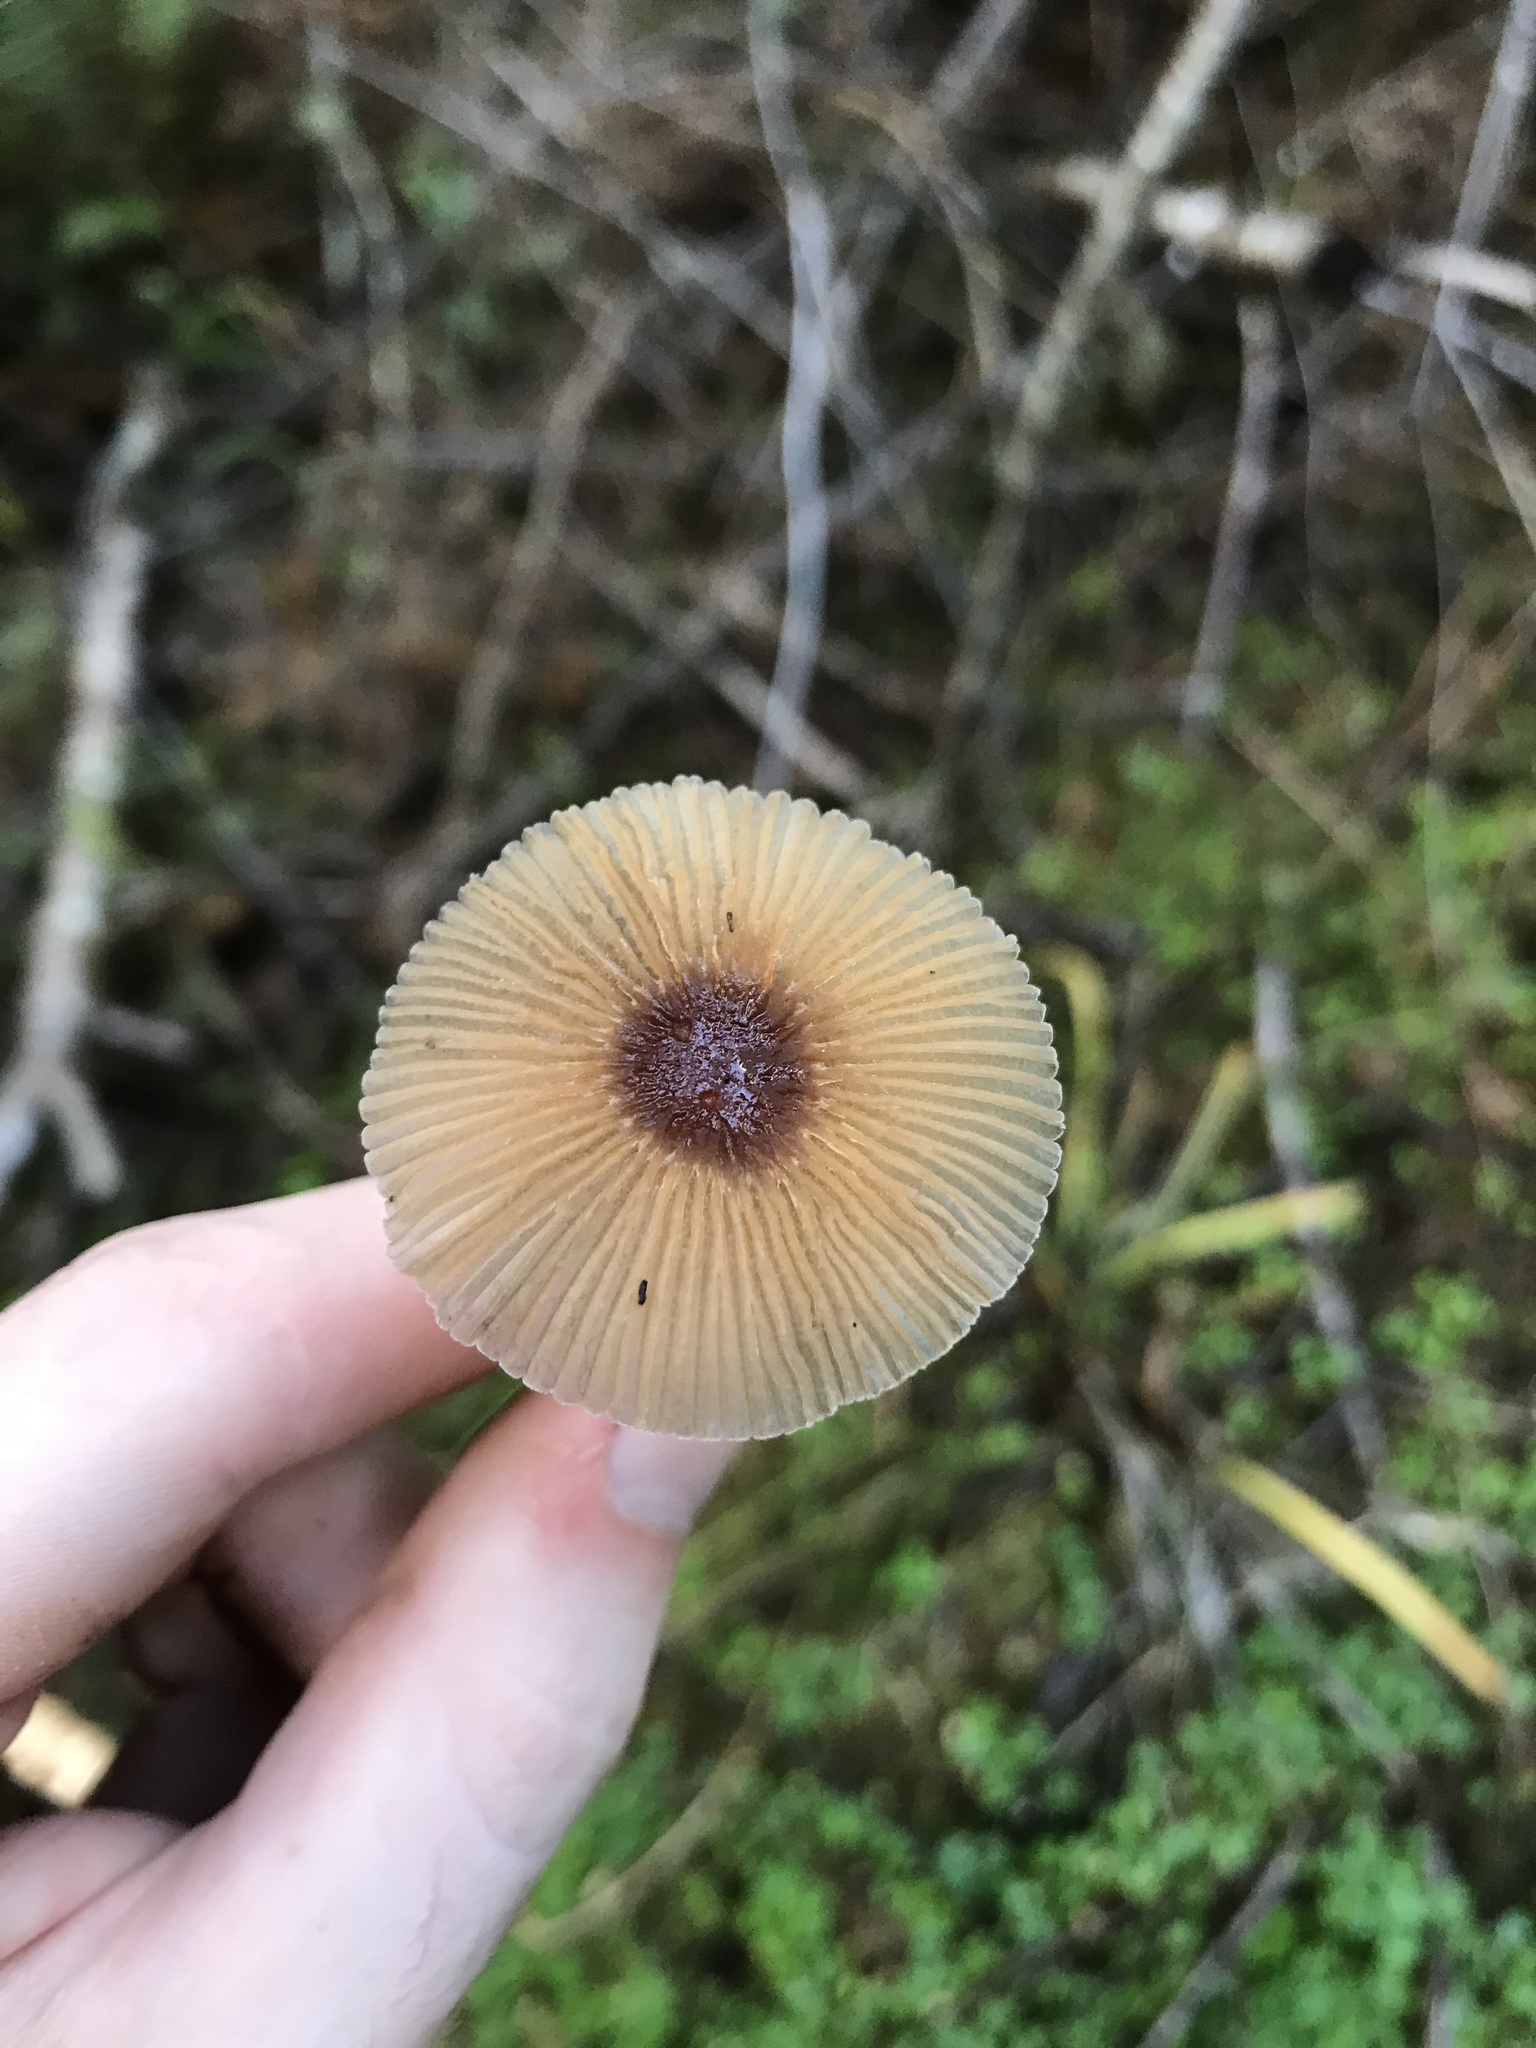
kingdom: Fungi
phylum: Basidiomycota
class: Agaricomycetes
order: Agaricales
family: Psathyrellaceae
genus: Parasola
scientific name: Parasola auricoma
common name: Goldenhaired inkcap
